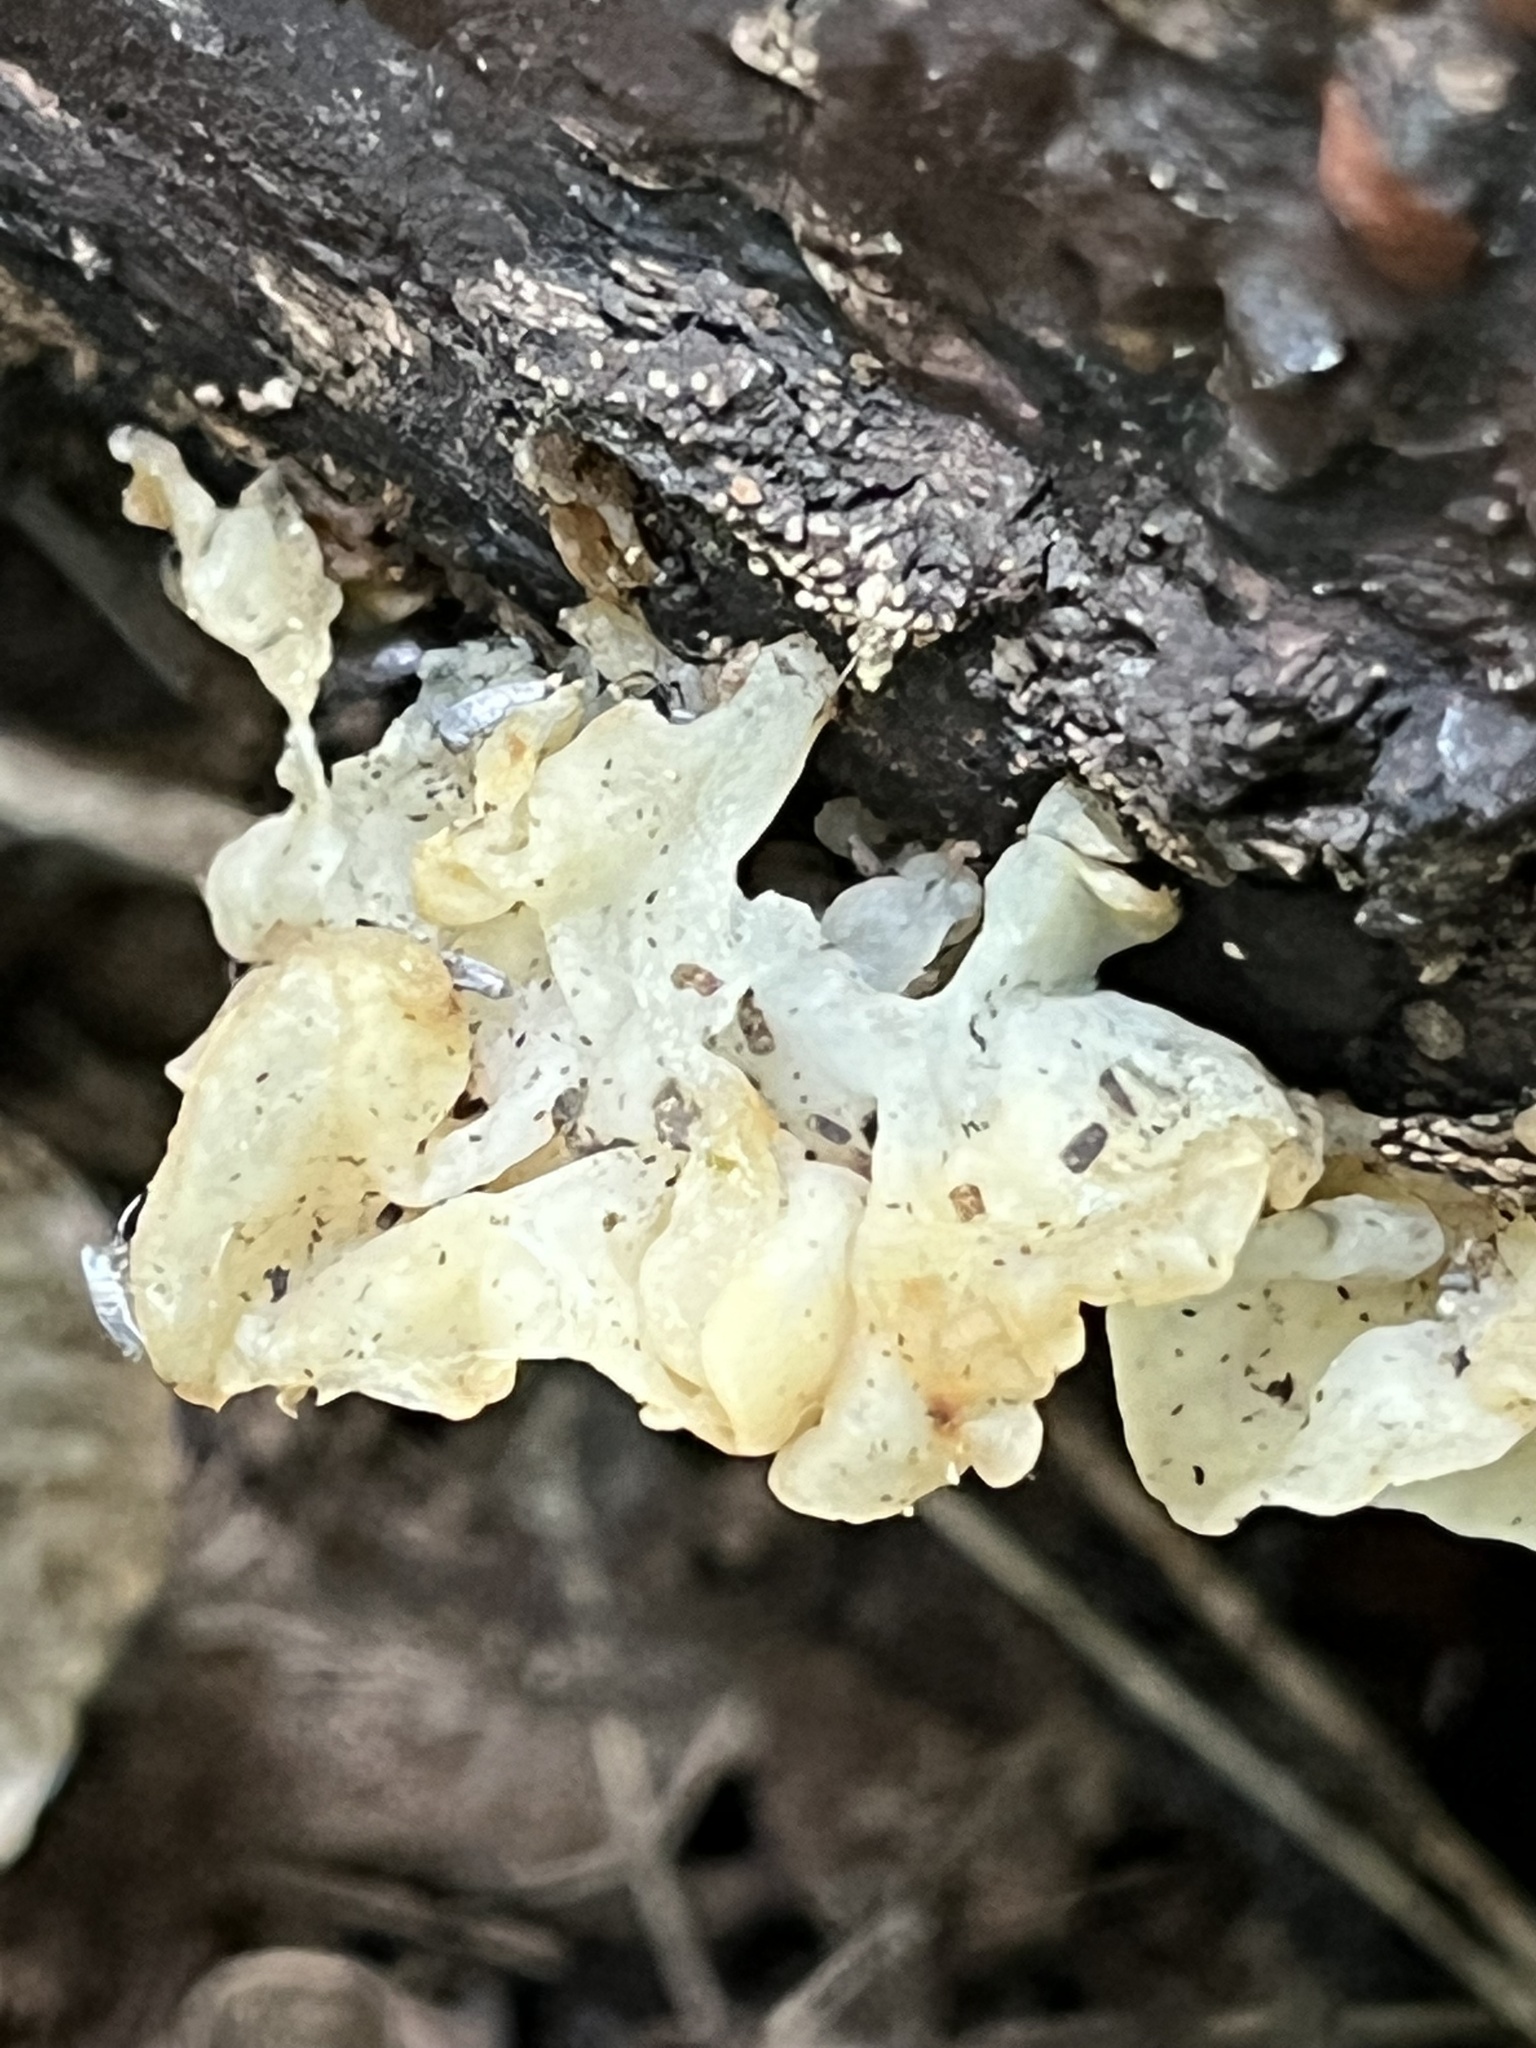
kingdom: Fungi
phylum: Basidiomycota
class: Agaricomycetes
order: Auriculariales
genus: Ductifera
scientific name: Ductifera pululahuana
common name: White jelly fungus
